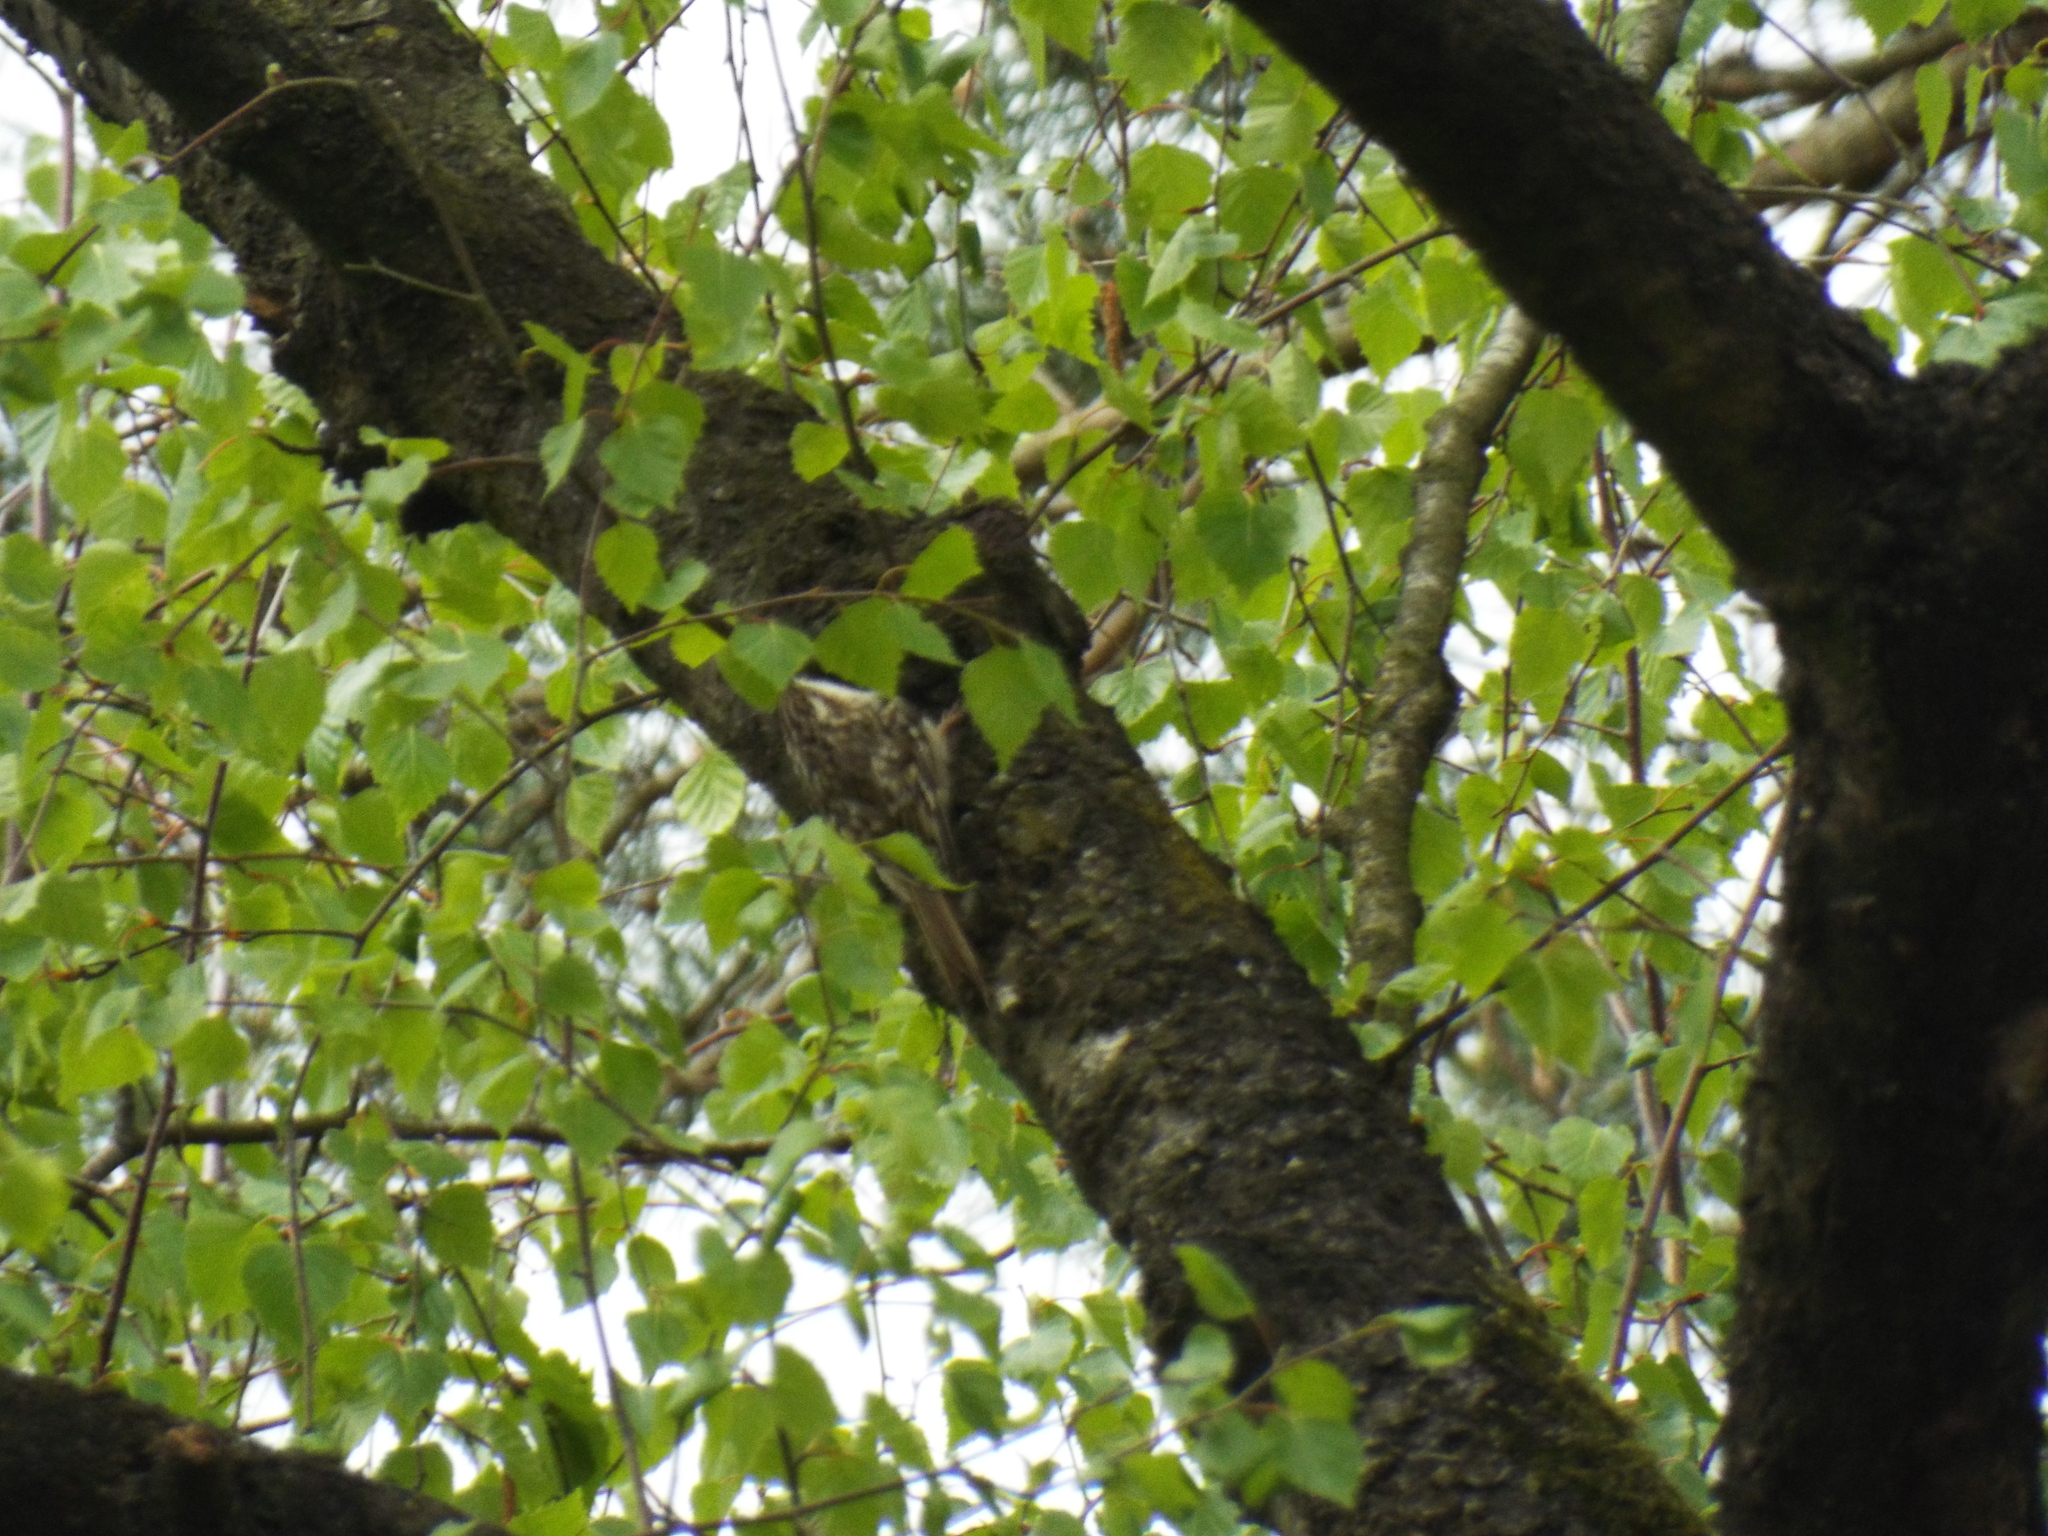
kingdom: Animalia
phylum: Chordata
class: Aves
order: Passeriformes
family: Certhiidae
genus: Certhia
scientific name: Certhia brachydactyla
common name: Short-toed treecreeper
